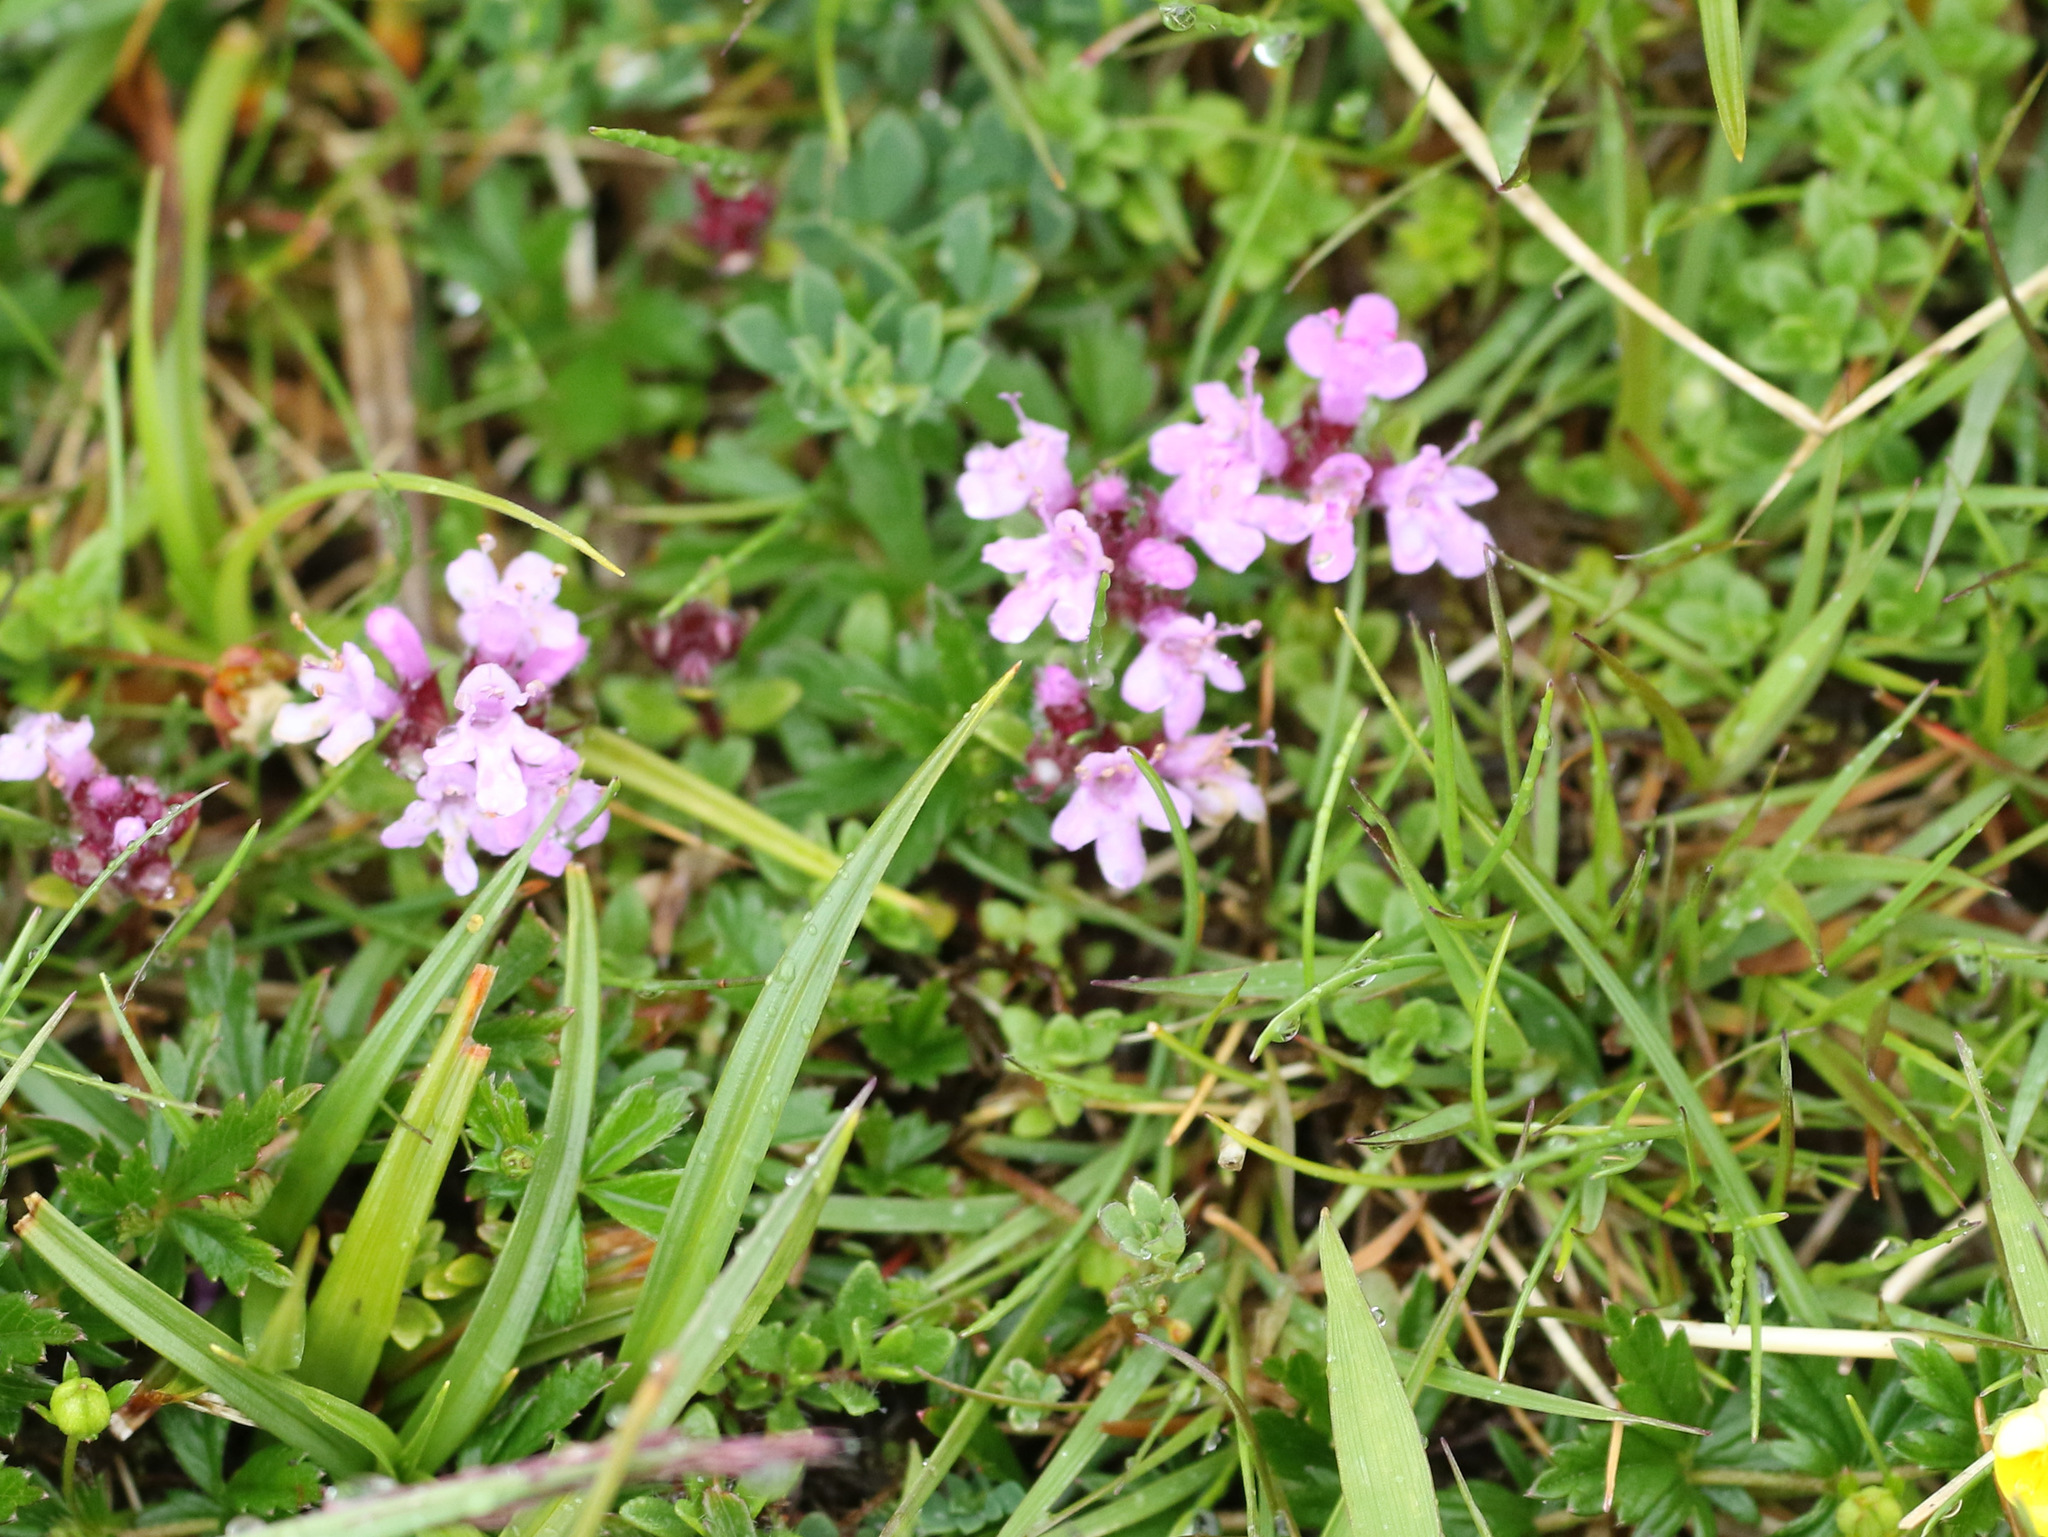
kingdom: Plantae
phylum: Tracheophyta
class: Magnoliopsida
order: Lamiales
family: Lamiaceae
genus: Thymus
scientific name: Thymus praecox
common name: Wild thyme
